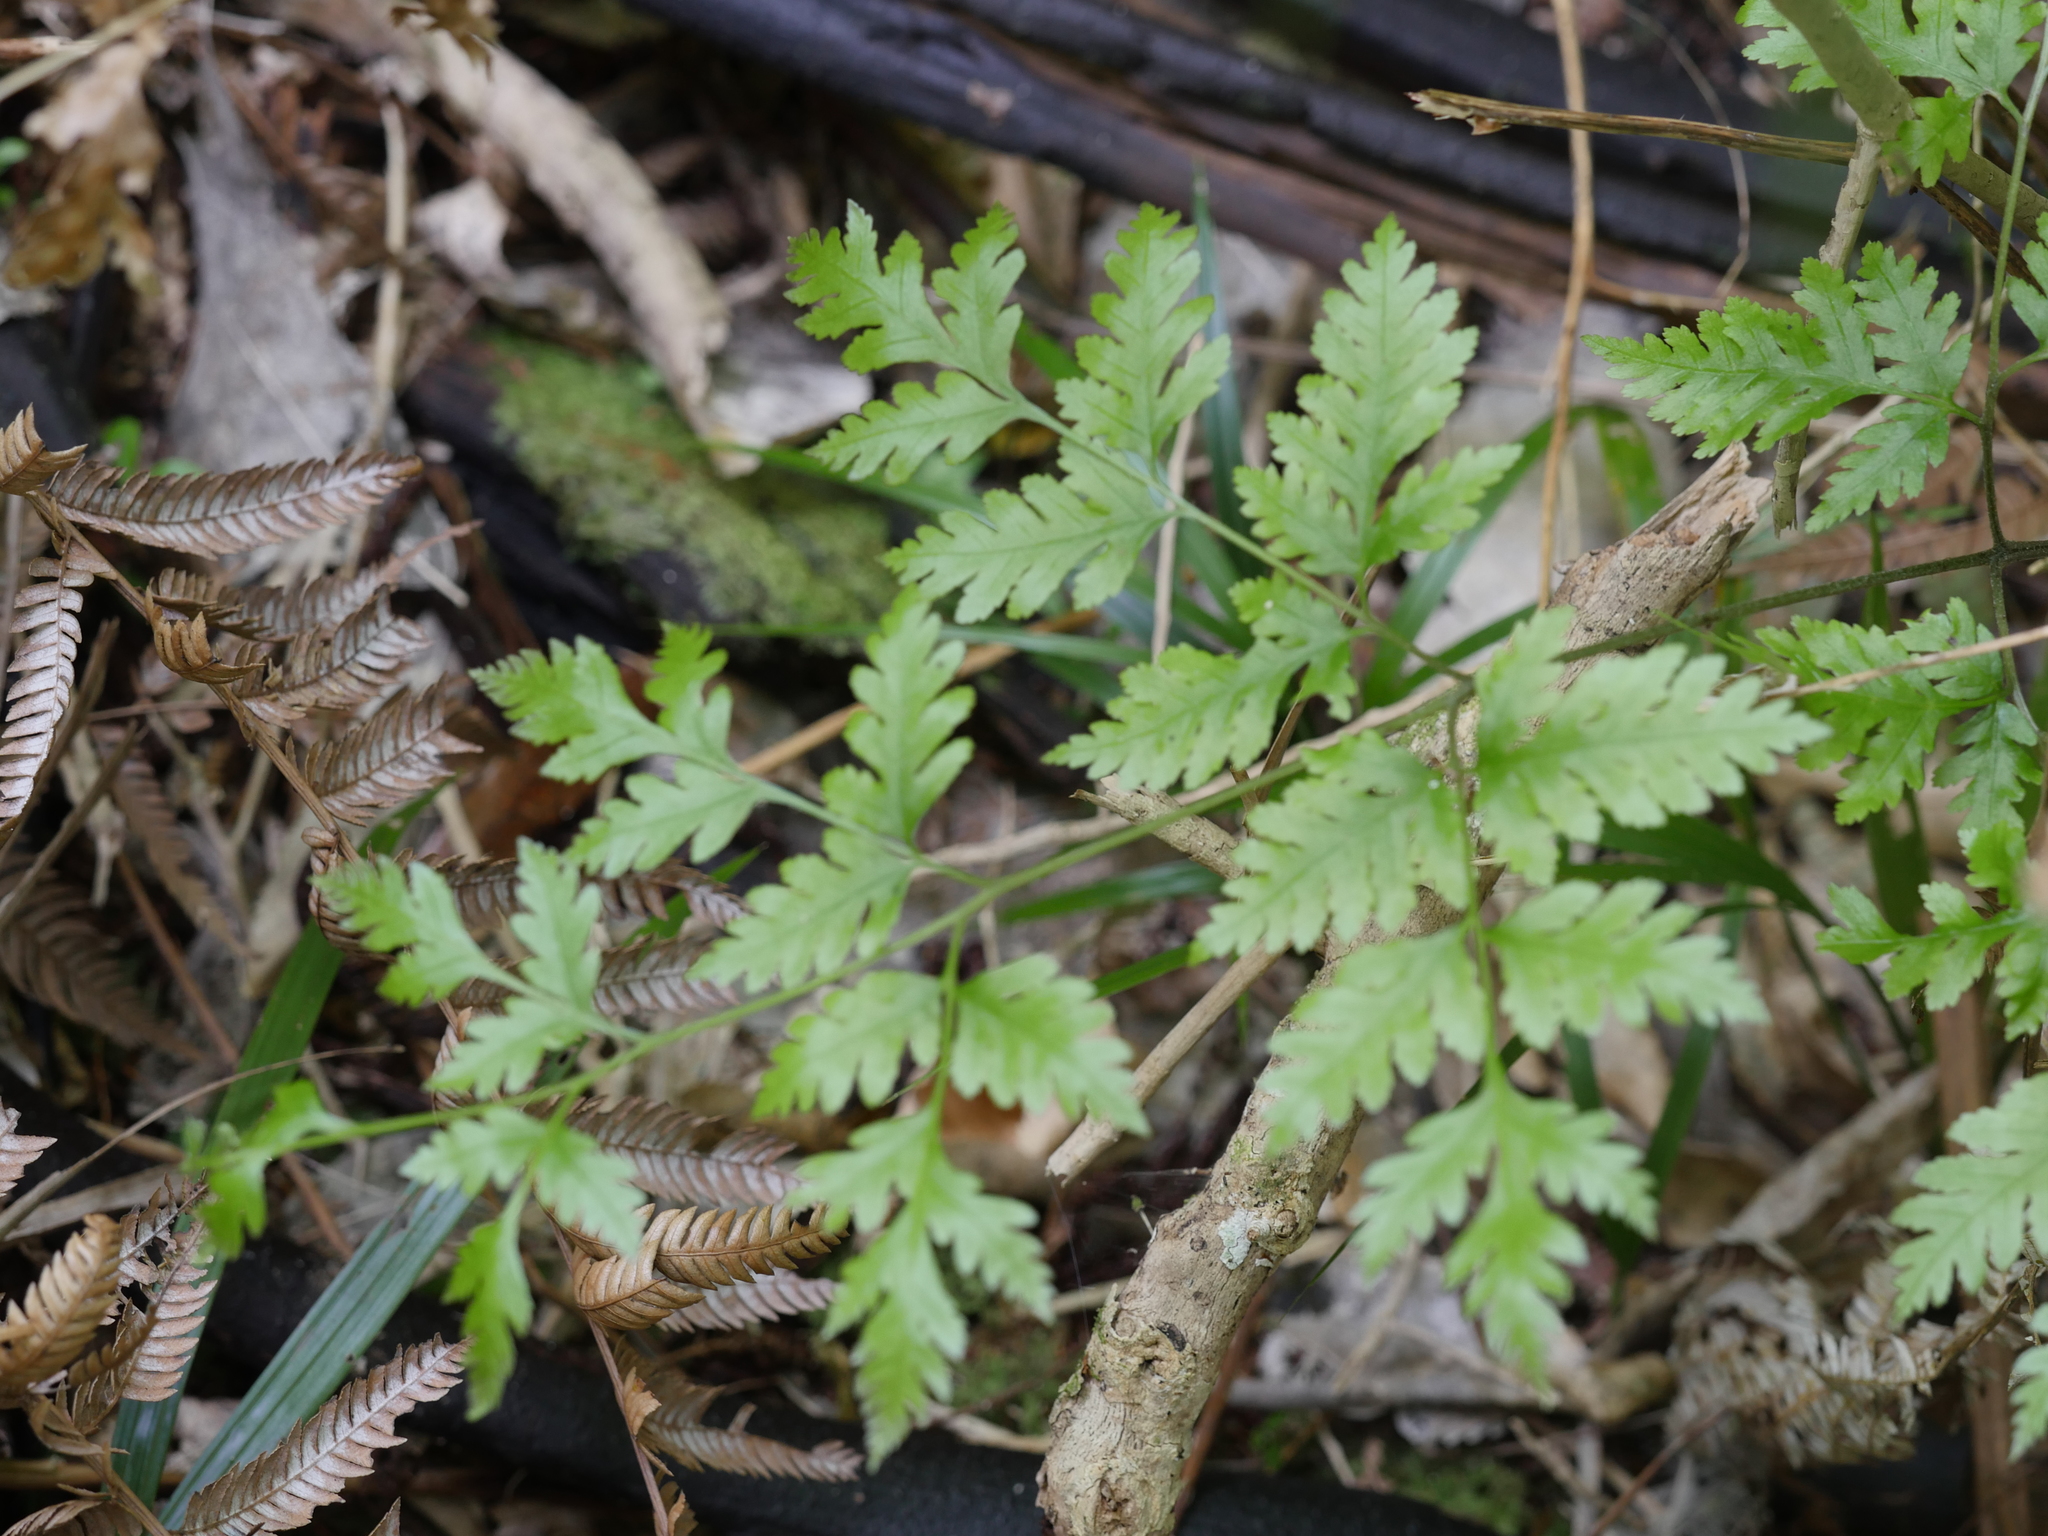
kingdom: Plantae
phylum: Tracheophyta
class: Polypodiopsida
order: Polypodiales
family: Pteridaceae
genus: Pteris
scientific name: Pteris macilenta
